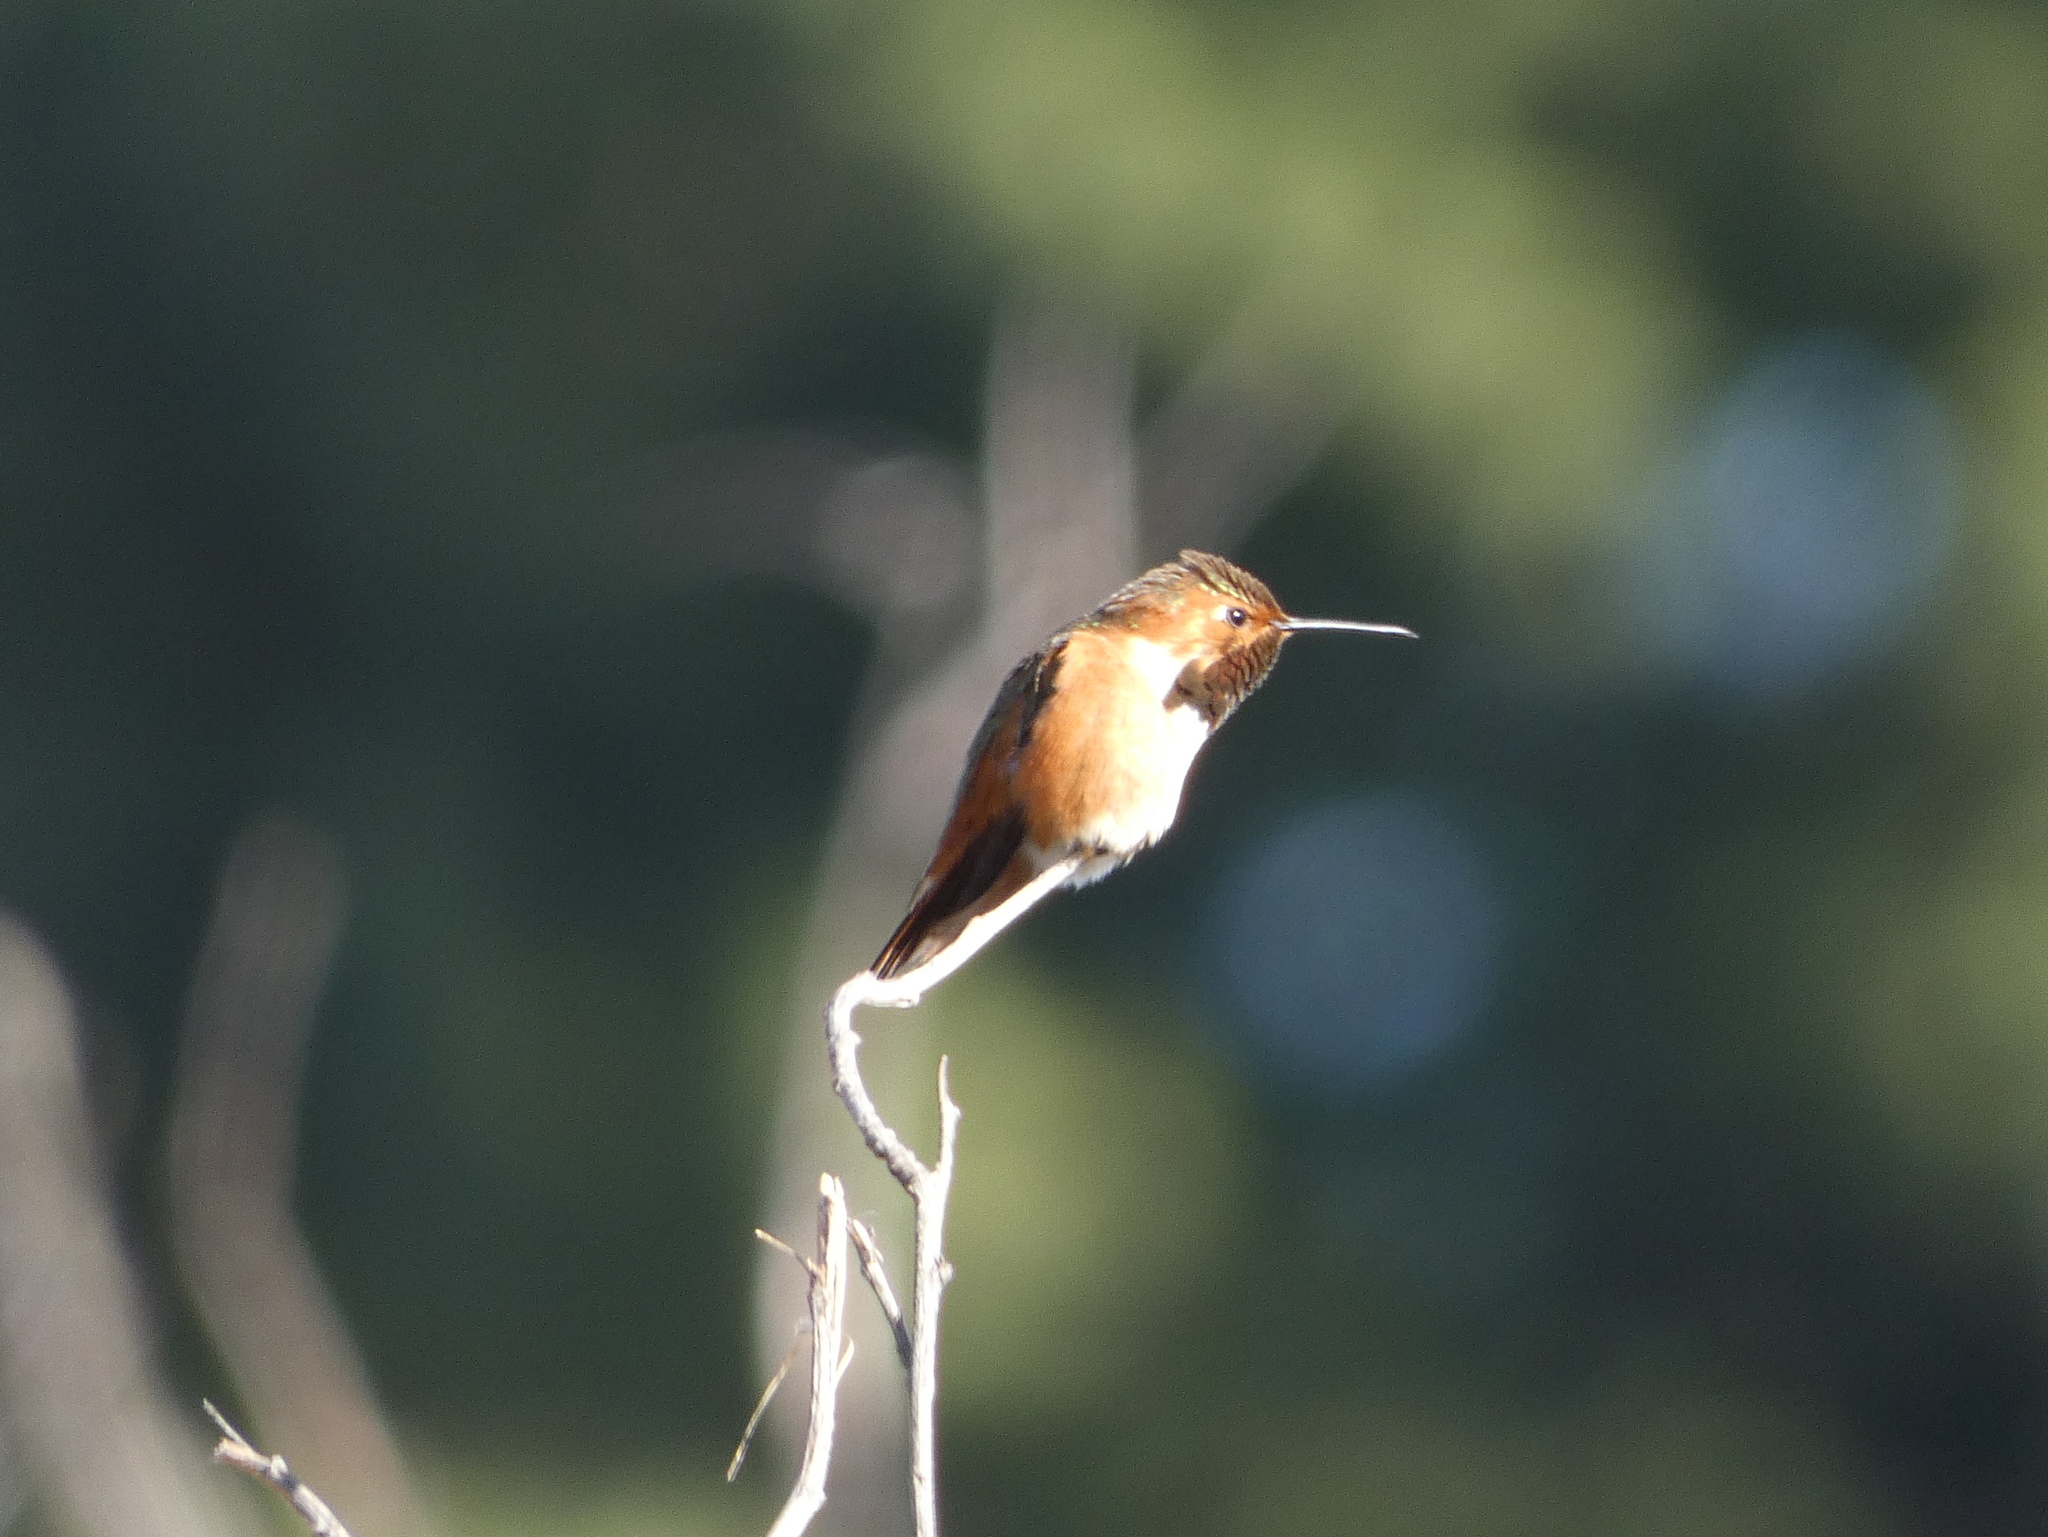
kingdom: Animalia
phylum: Chordata
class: Aves
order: Apodiformes
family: Trochilidae
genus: Selasphorus
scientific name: Selasphorus sasin
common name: Allen's hummingbird
